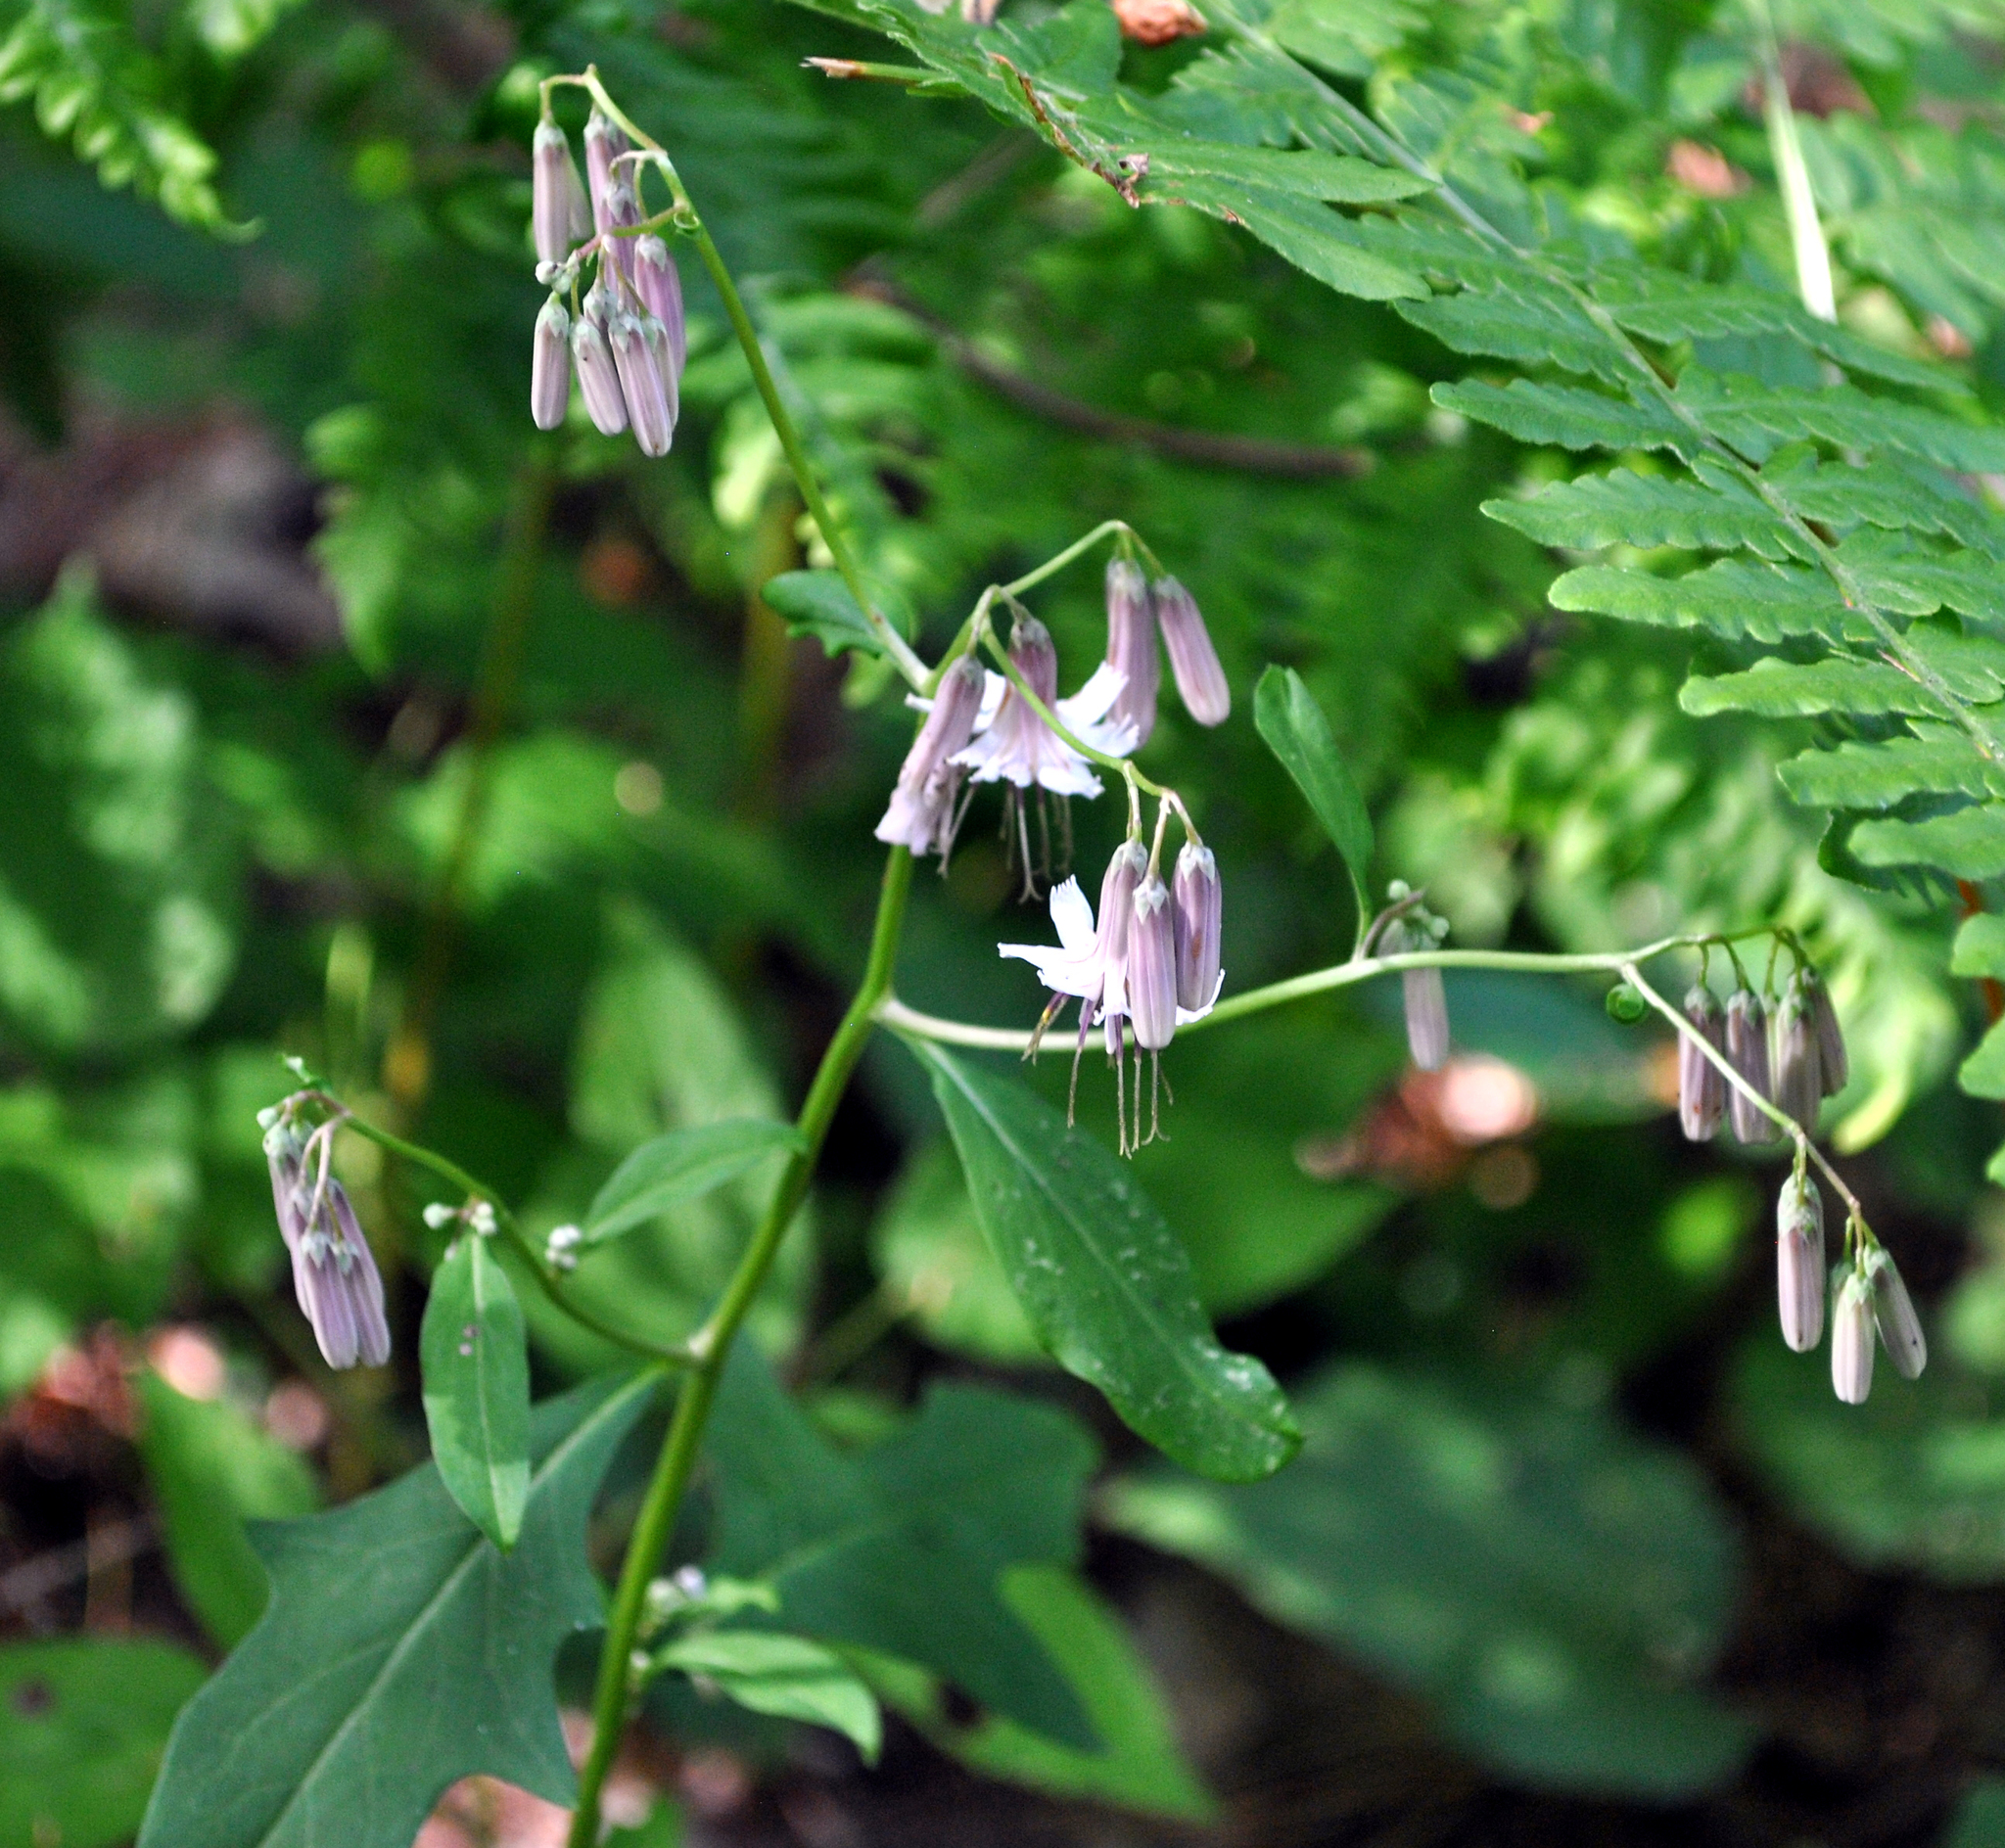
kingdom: Plantae
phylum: Tracheophyta
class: Magnoliopsida
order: Asterales
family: Asteraceae
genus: Nabalus
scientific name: Nabalus albus
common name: White rattlesnakeroot
